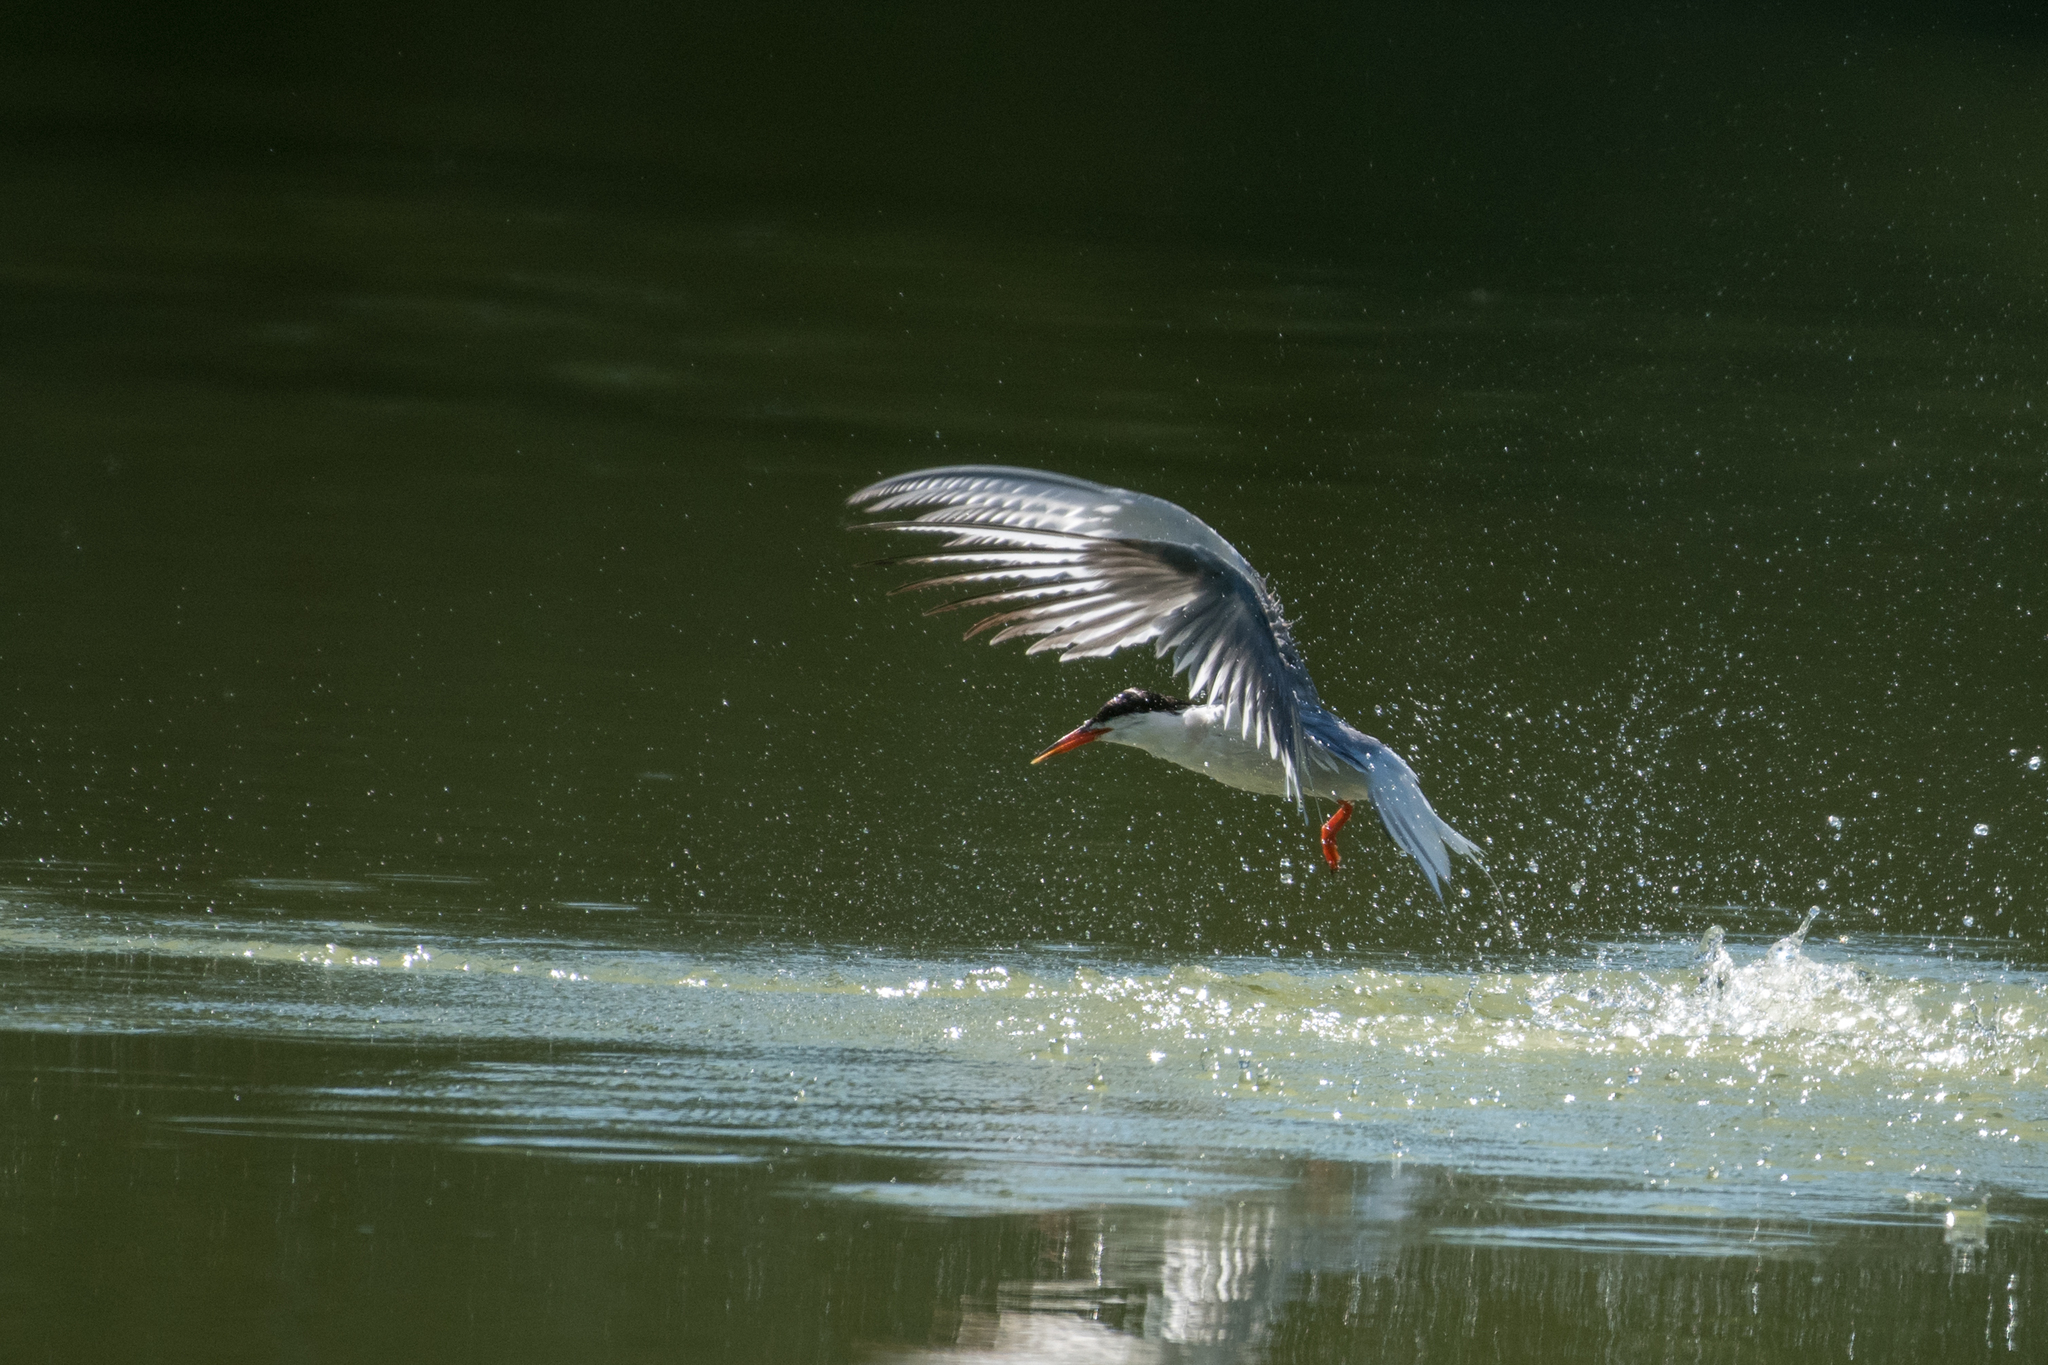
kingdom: Animalia
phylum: Chordata
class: Aves
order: Charadriiformes
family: Laridae
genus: Sterna
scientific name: Sterna hirundo
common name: Common tern
